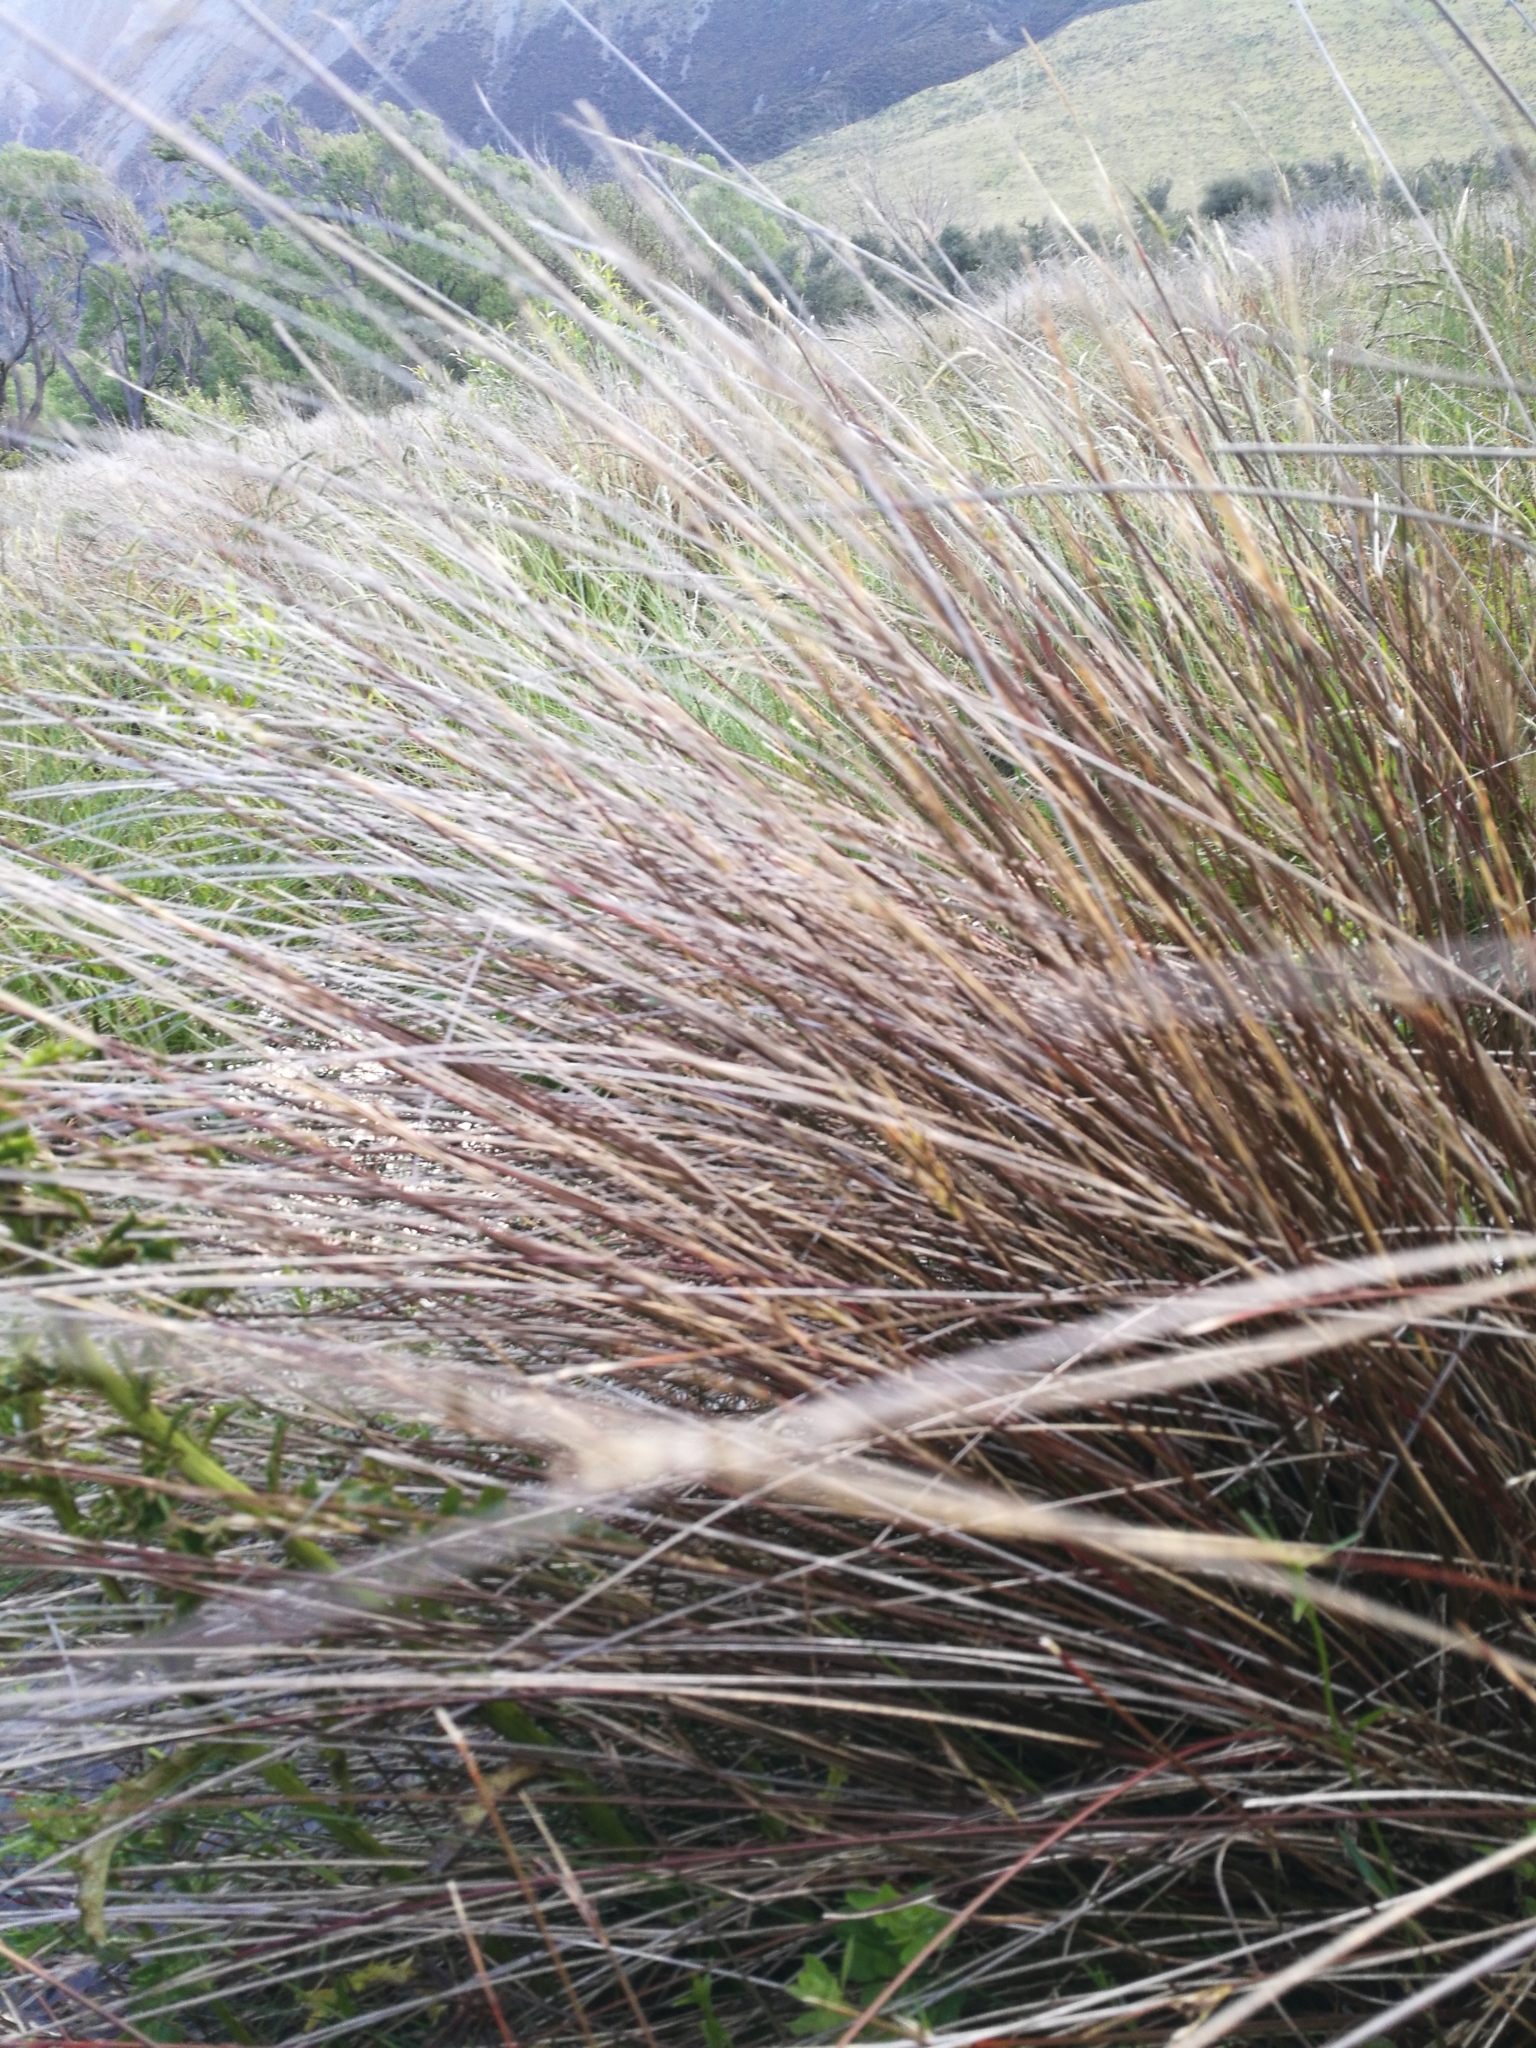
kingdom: Plantae
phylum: Tracheophyta
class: Liliopsida
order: Poales
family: Cyperaceae
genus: Schoenus
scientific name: Schoenus pauciflorus
